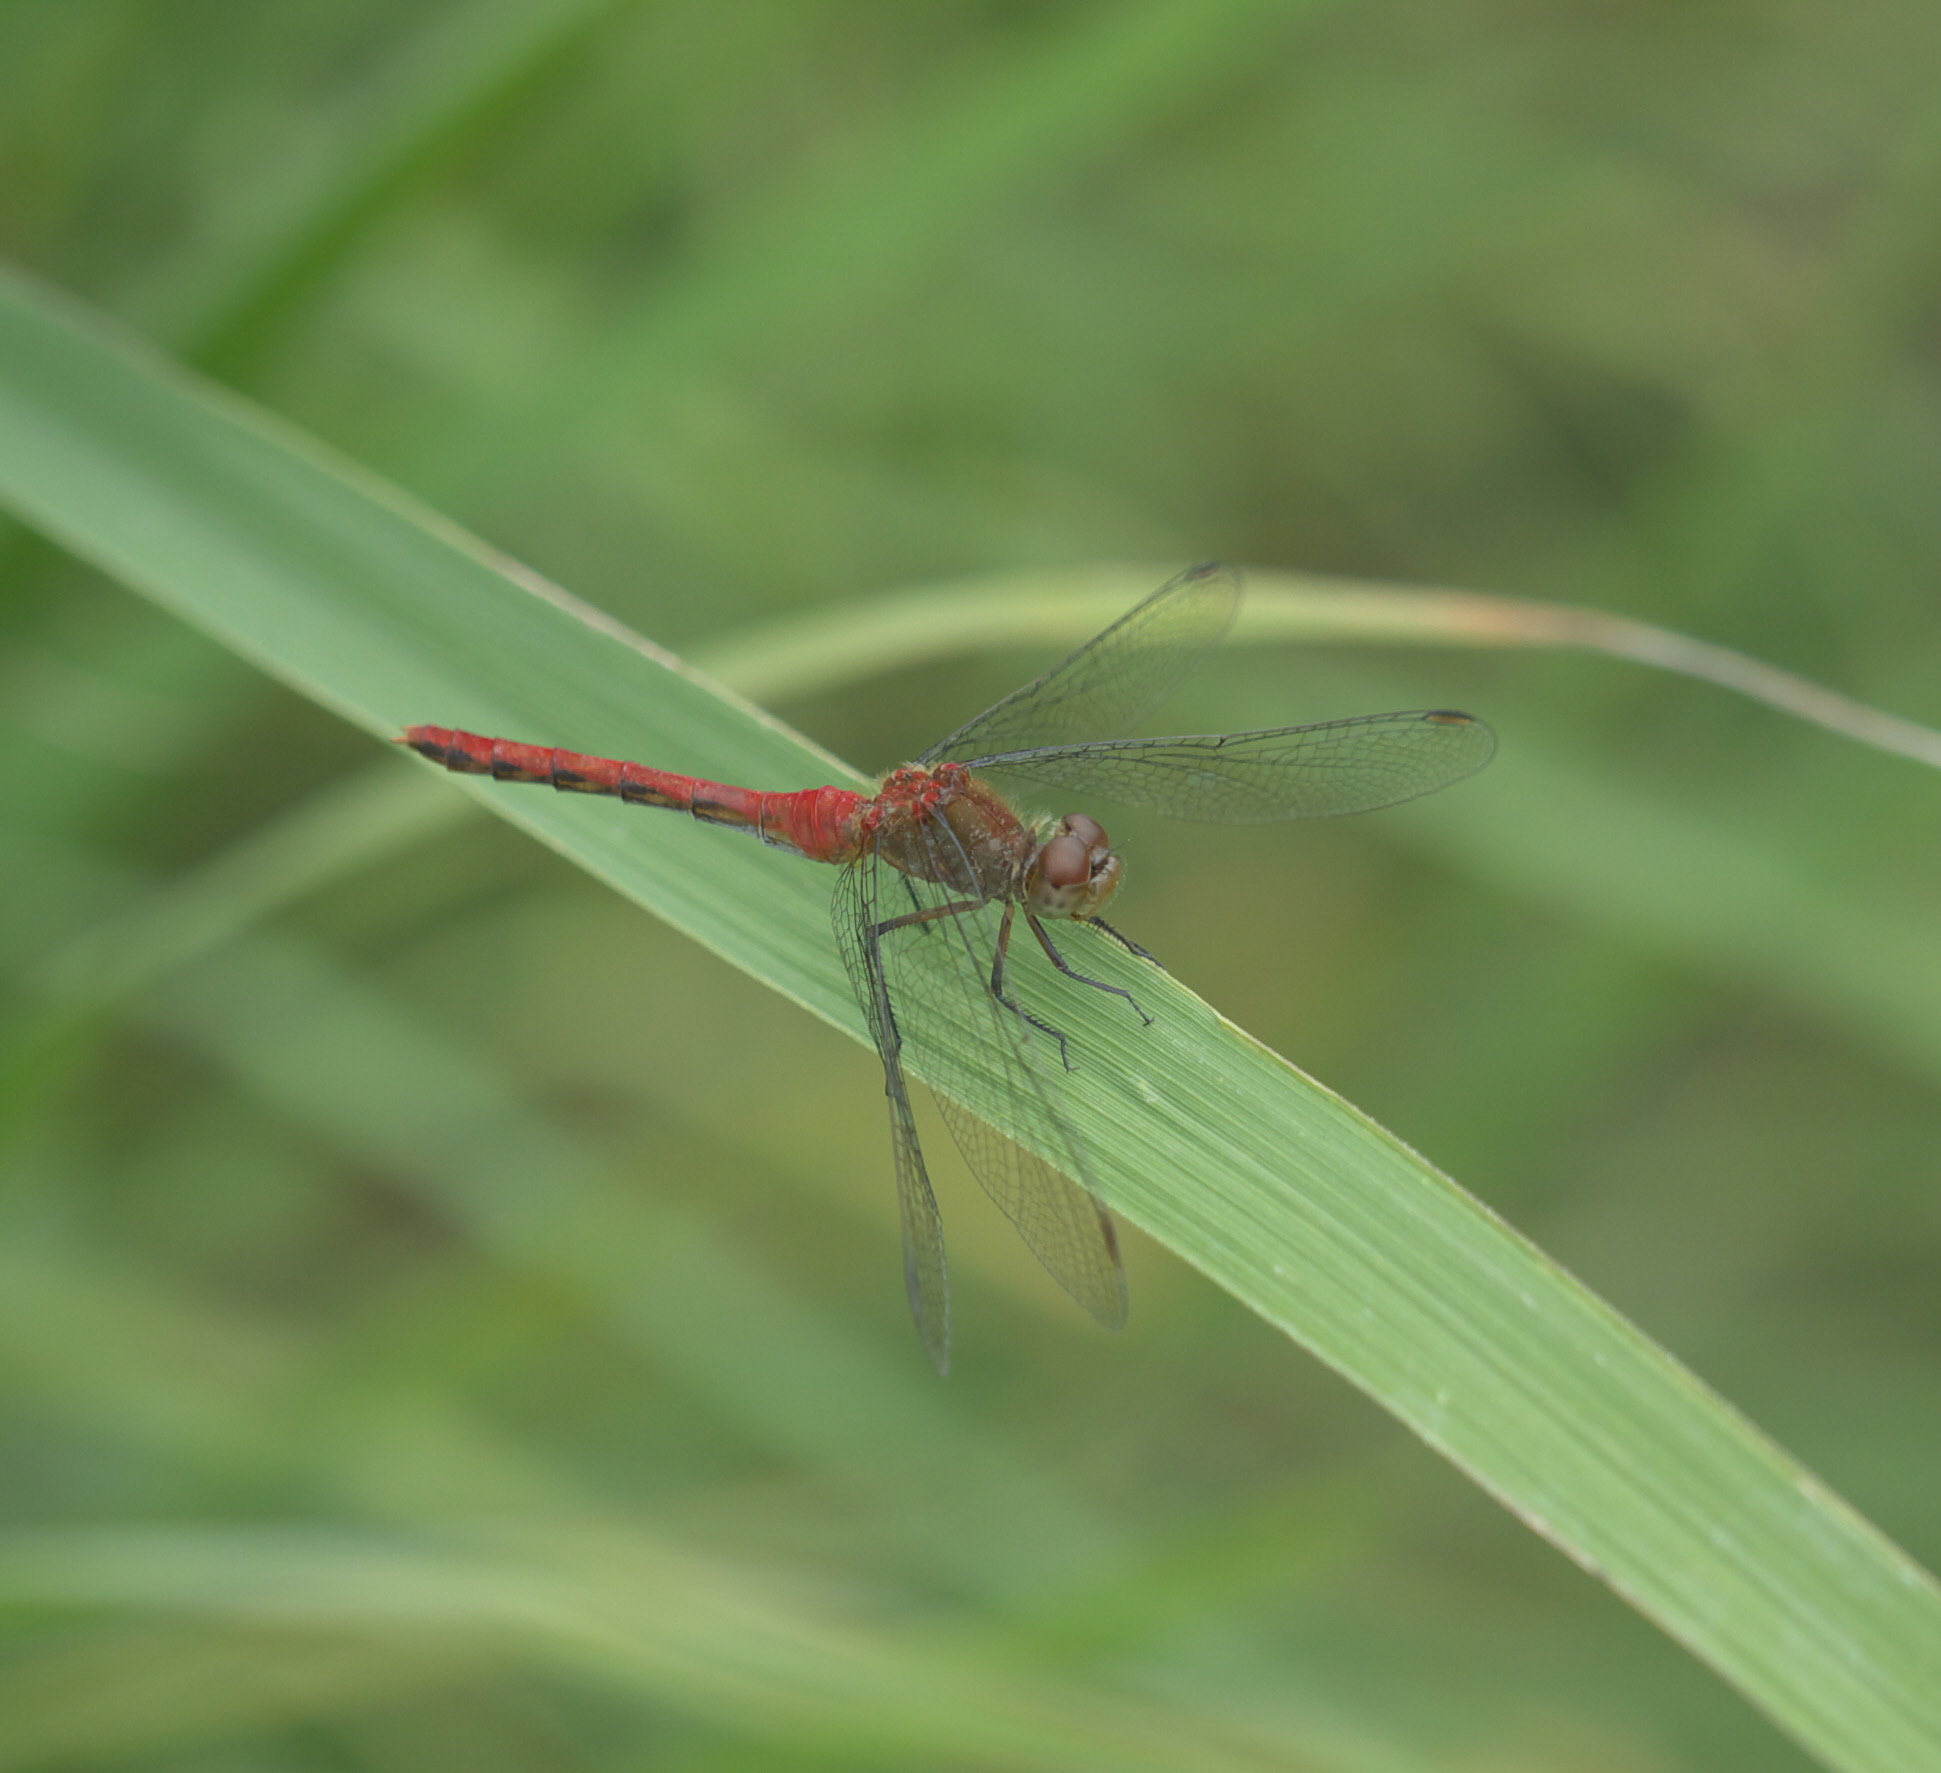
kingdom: Animalia
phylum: Arthropoda
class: Insecta
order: Odonata
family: Libellulidae
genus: Sympetrum
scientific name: Sympetrum
